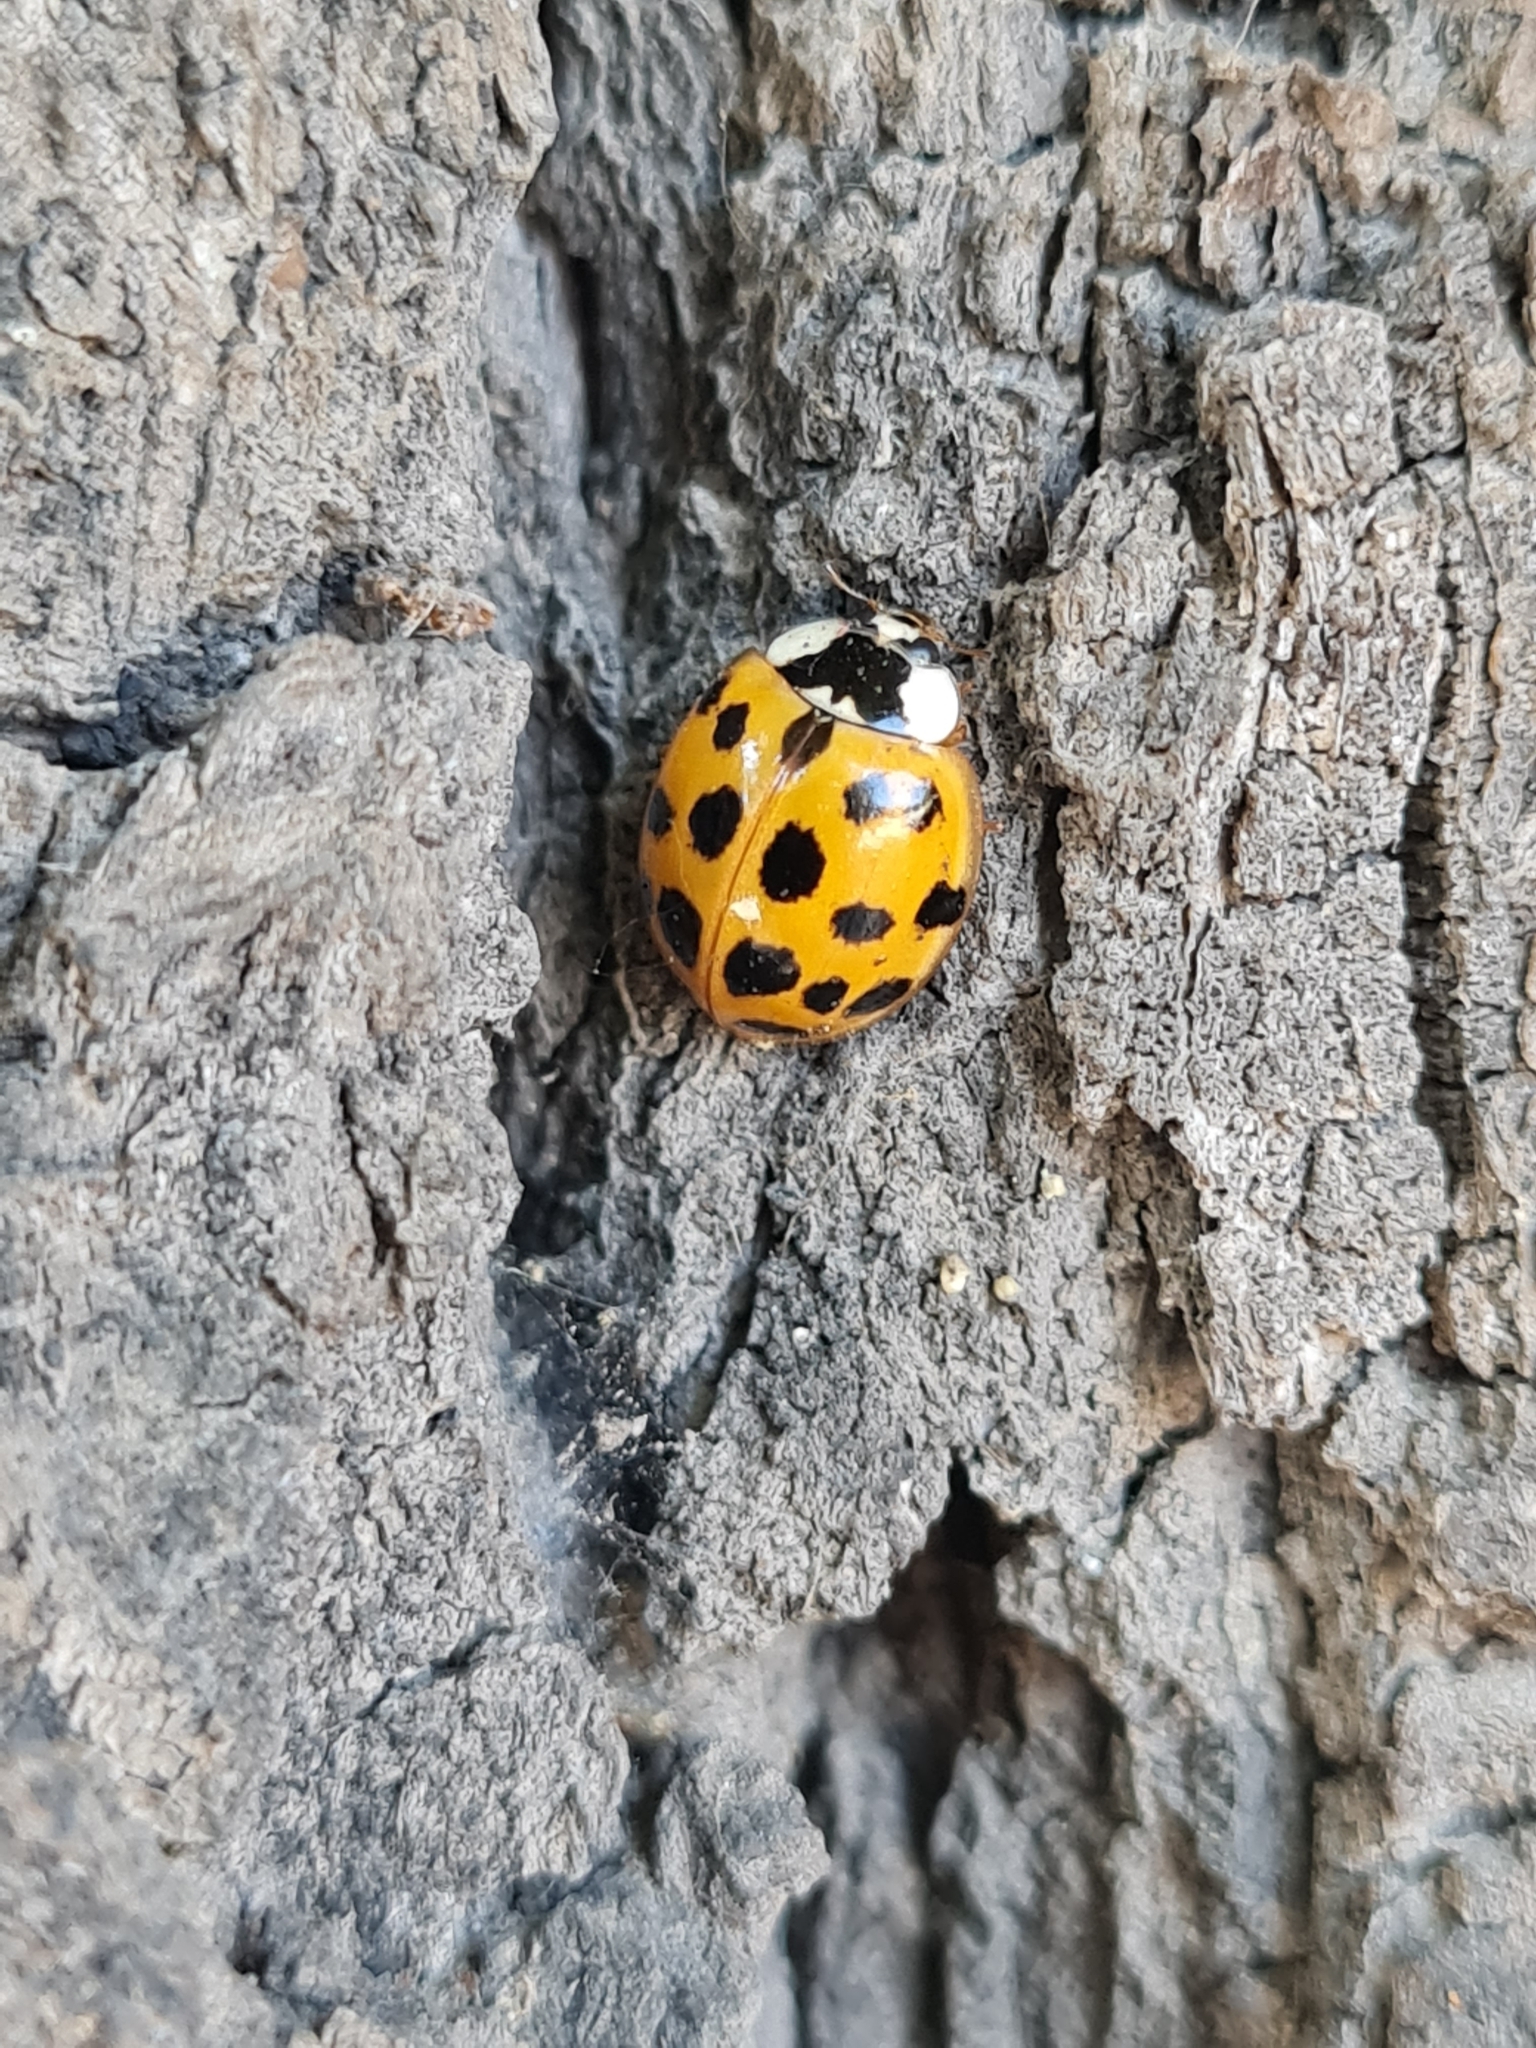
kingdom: Animalia
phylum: Arthropoda
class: Insecta
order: Coleoptera
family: Coccinellidae
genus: Harmonia
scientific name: Harmonia axyridis
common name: Harlequin ladybird
